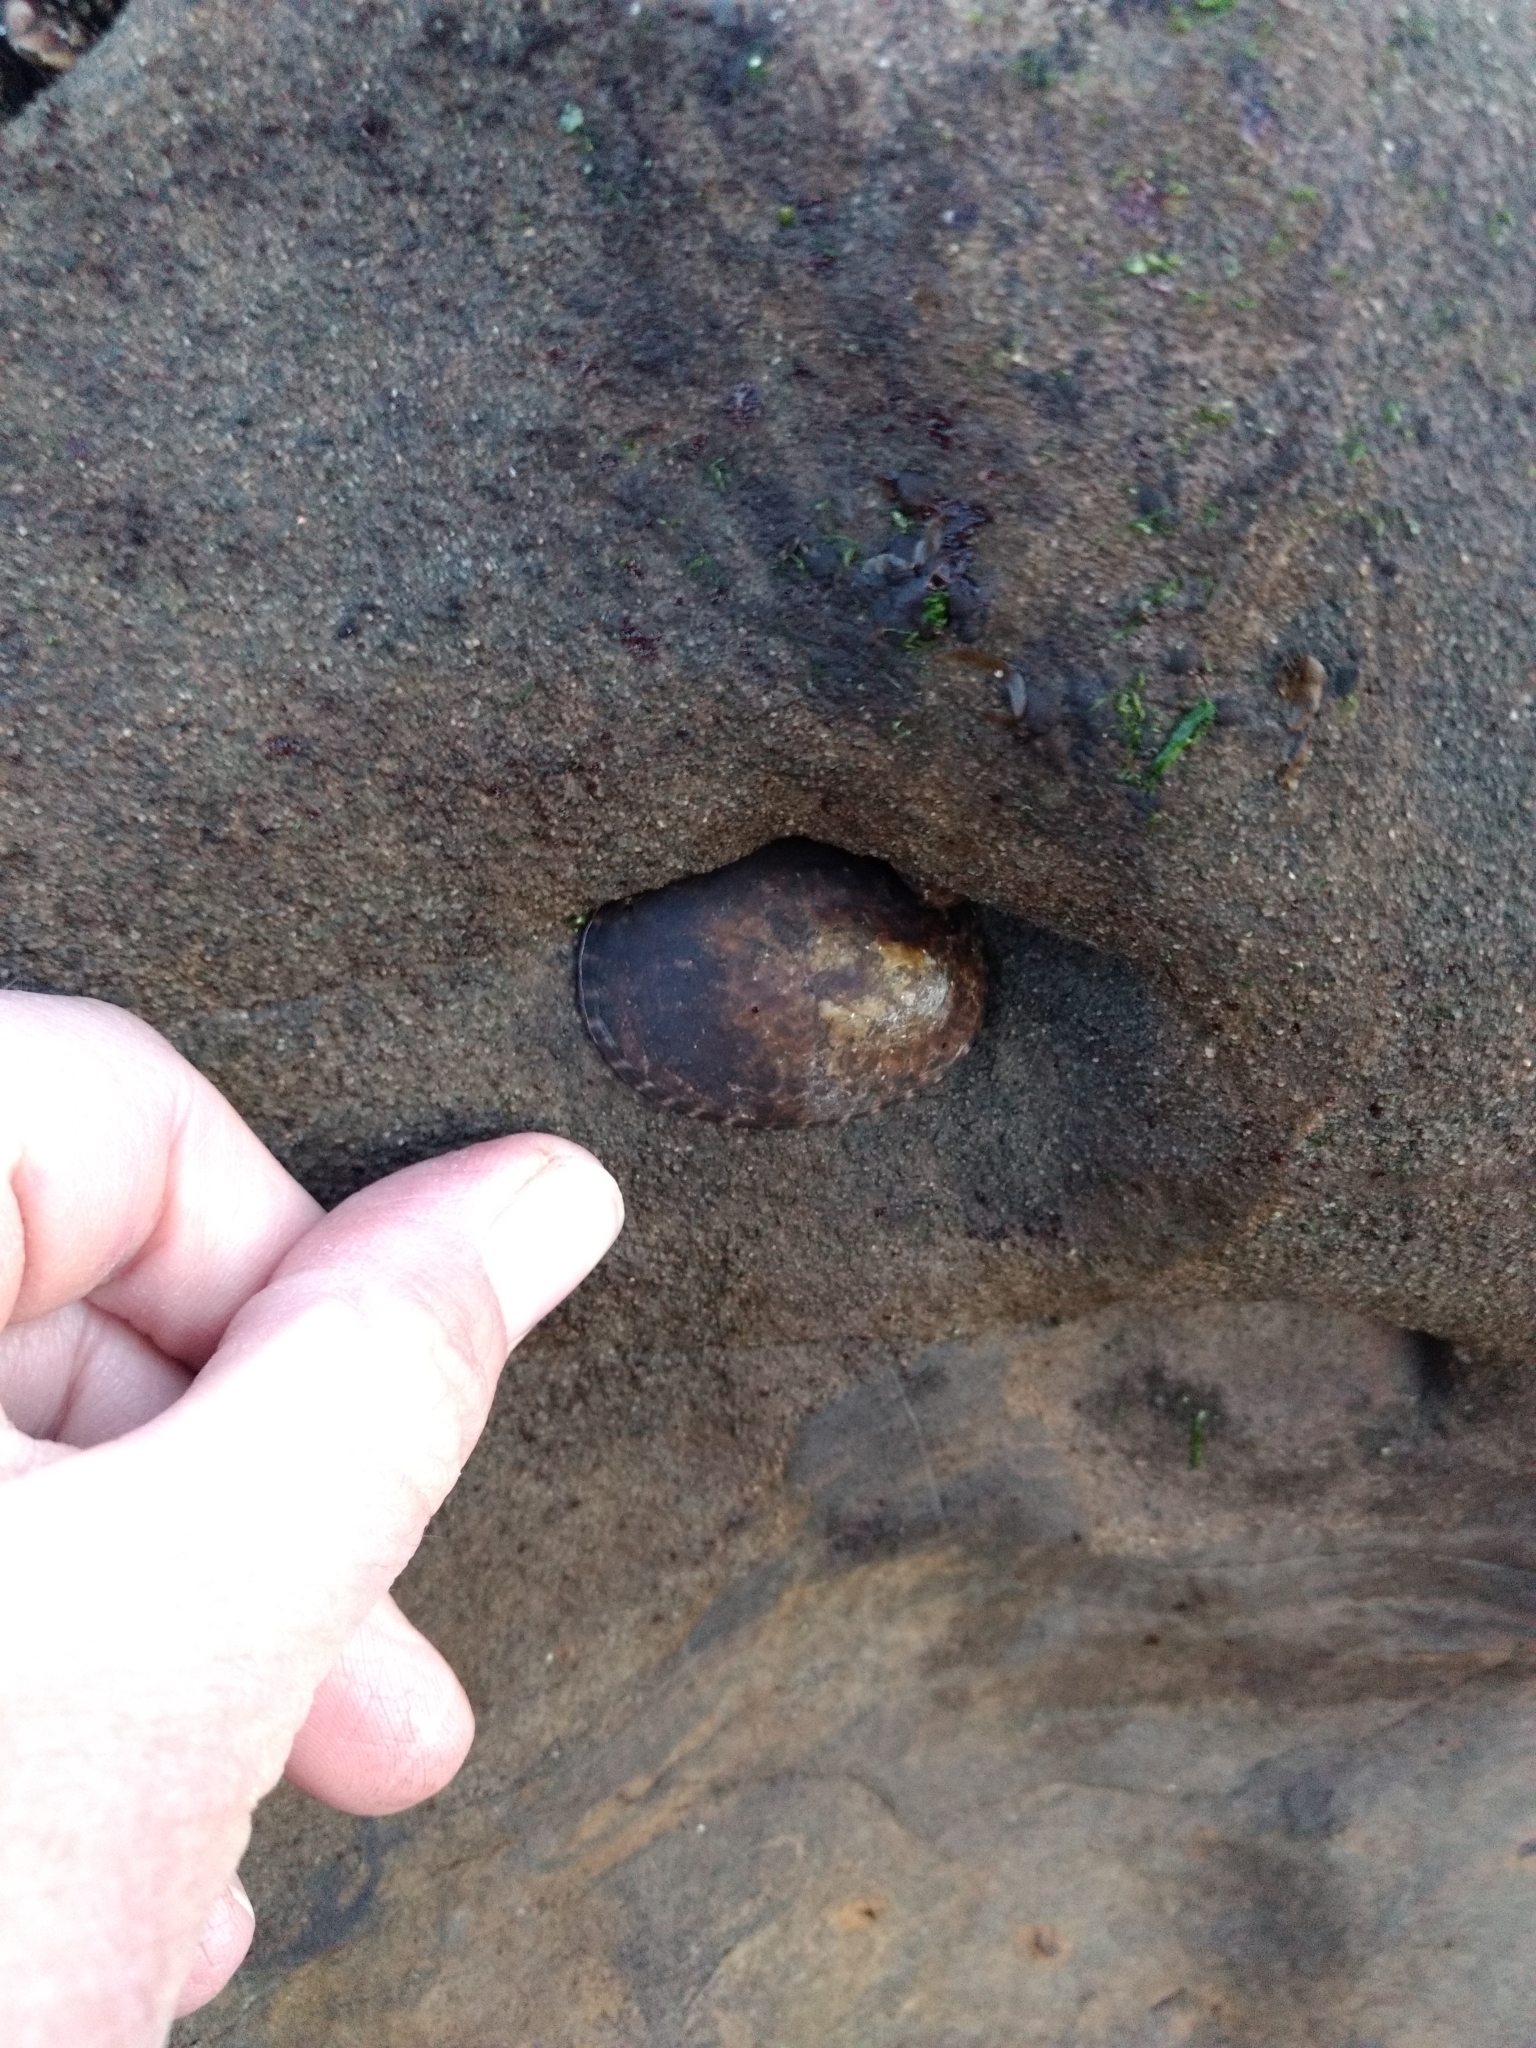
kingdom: Animalia
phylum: Mollusca
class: Gastropoda
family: Lottiidae
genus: Lottia
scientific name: Lottia gigantea
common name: Owl limpet
